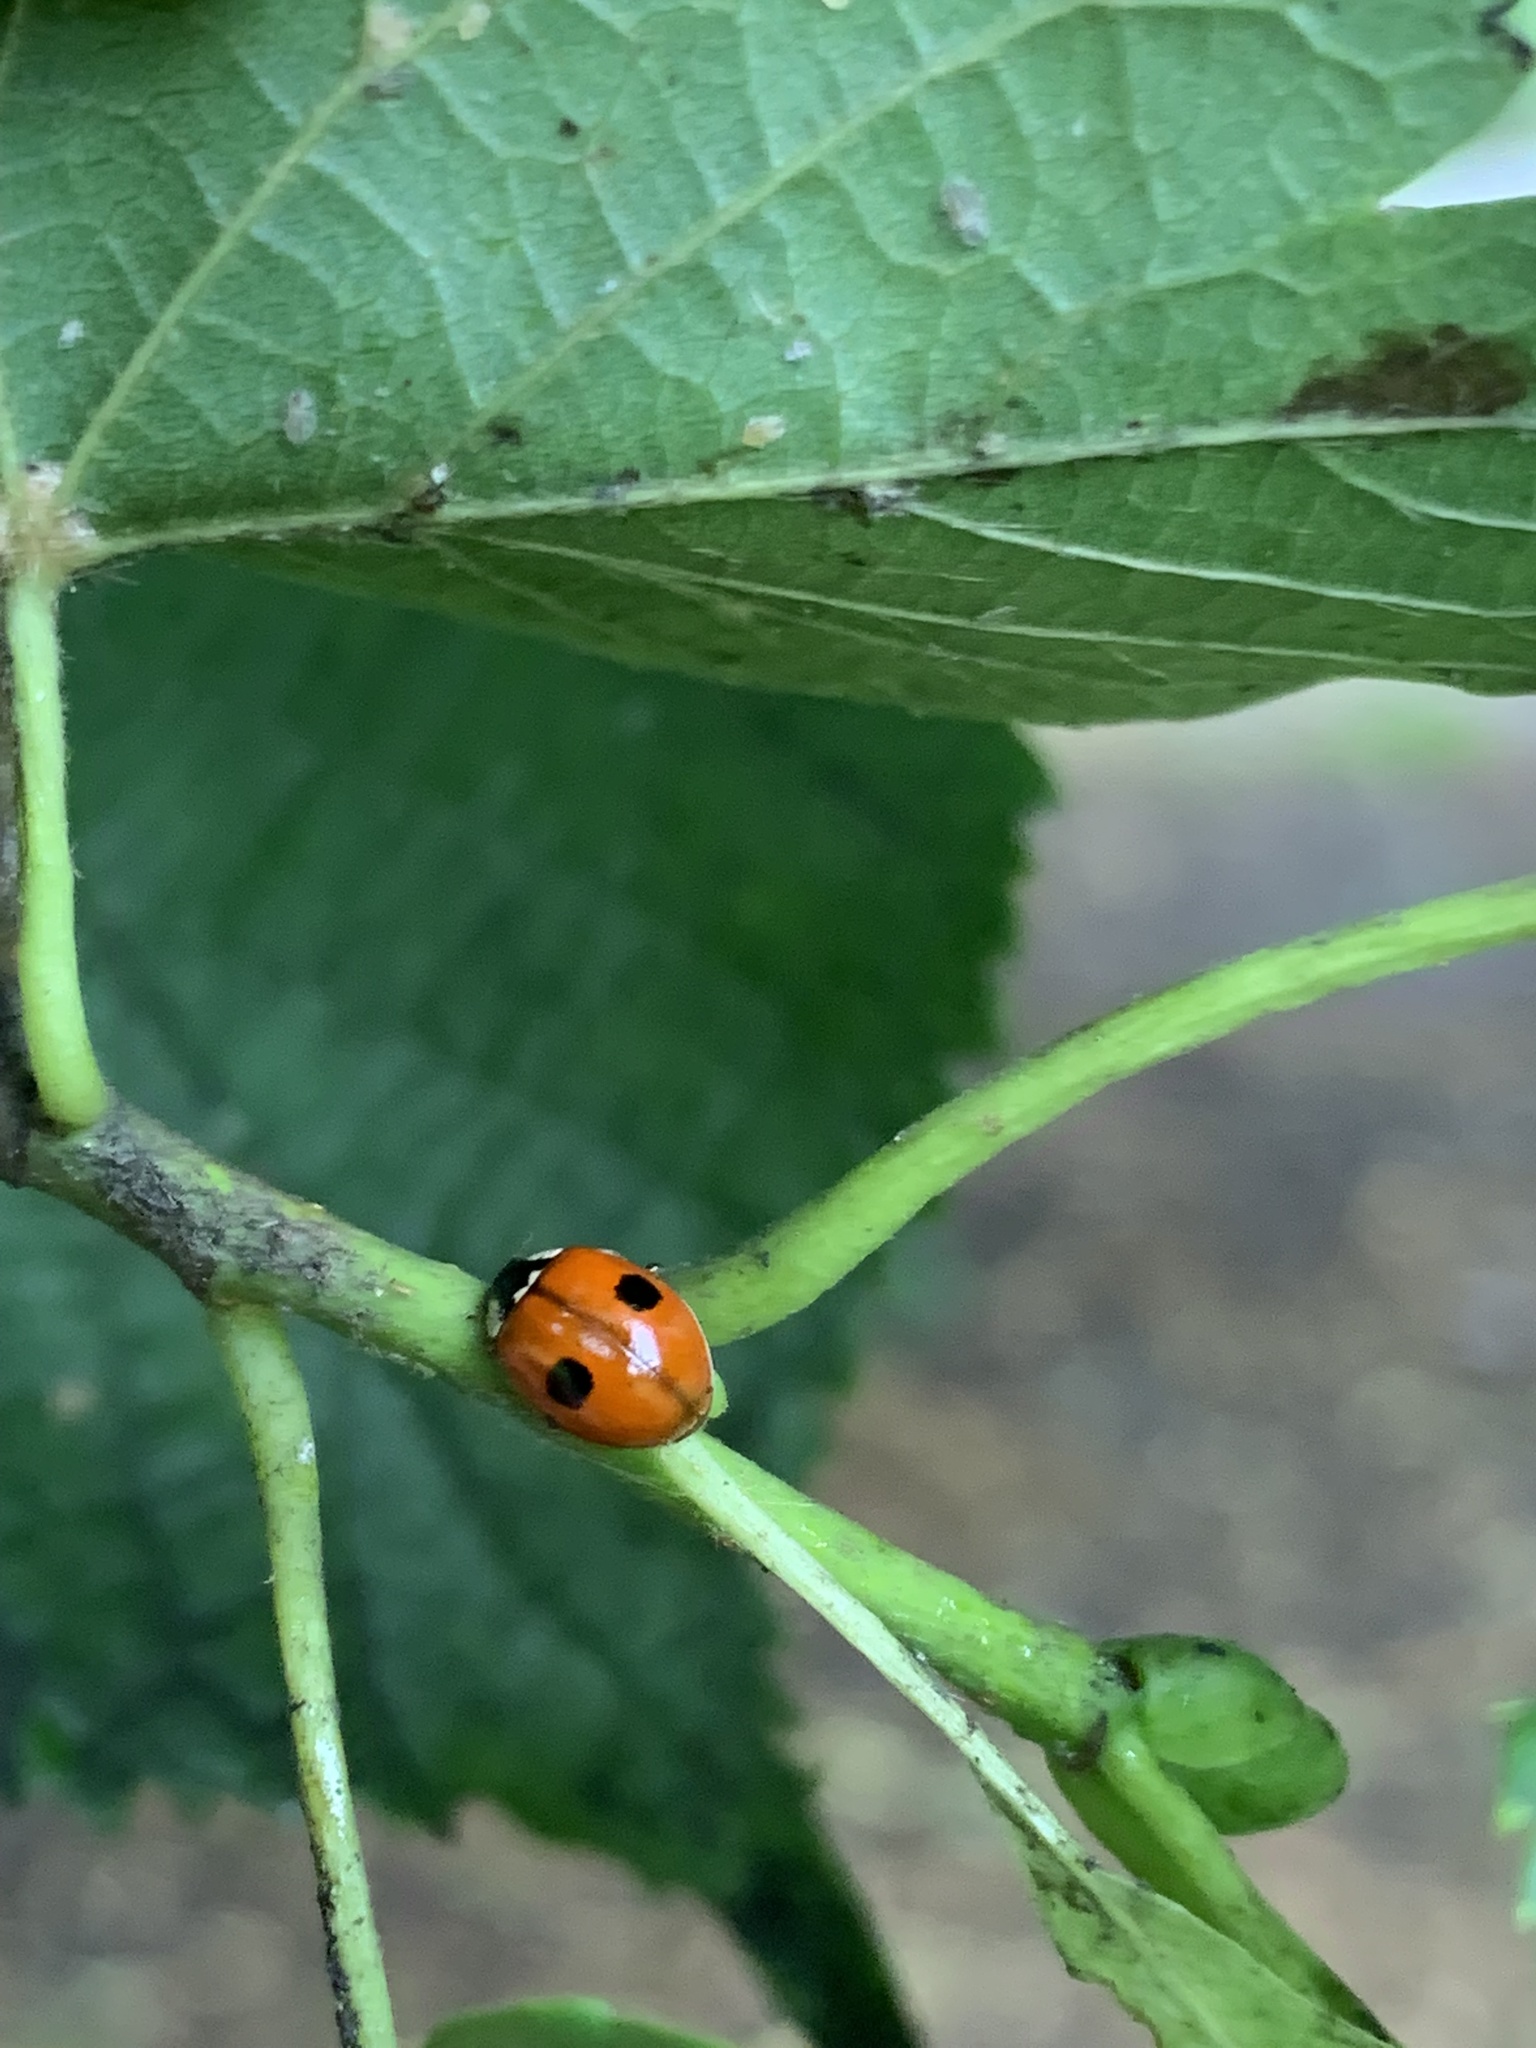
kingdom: Animalia
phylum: Arthropoda
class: Insecta
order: Coleoptera
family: Coccinellidae
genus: Adalia
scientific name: Adalia bipunctata
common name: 2-spot ladybird
